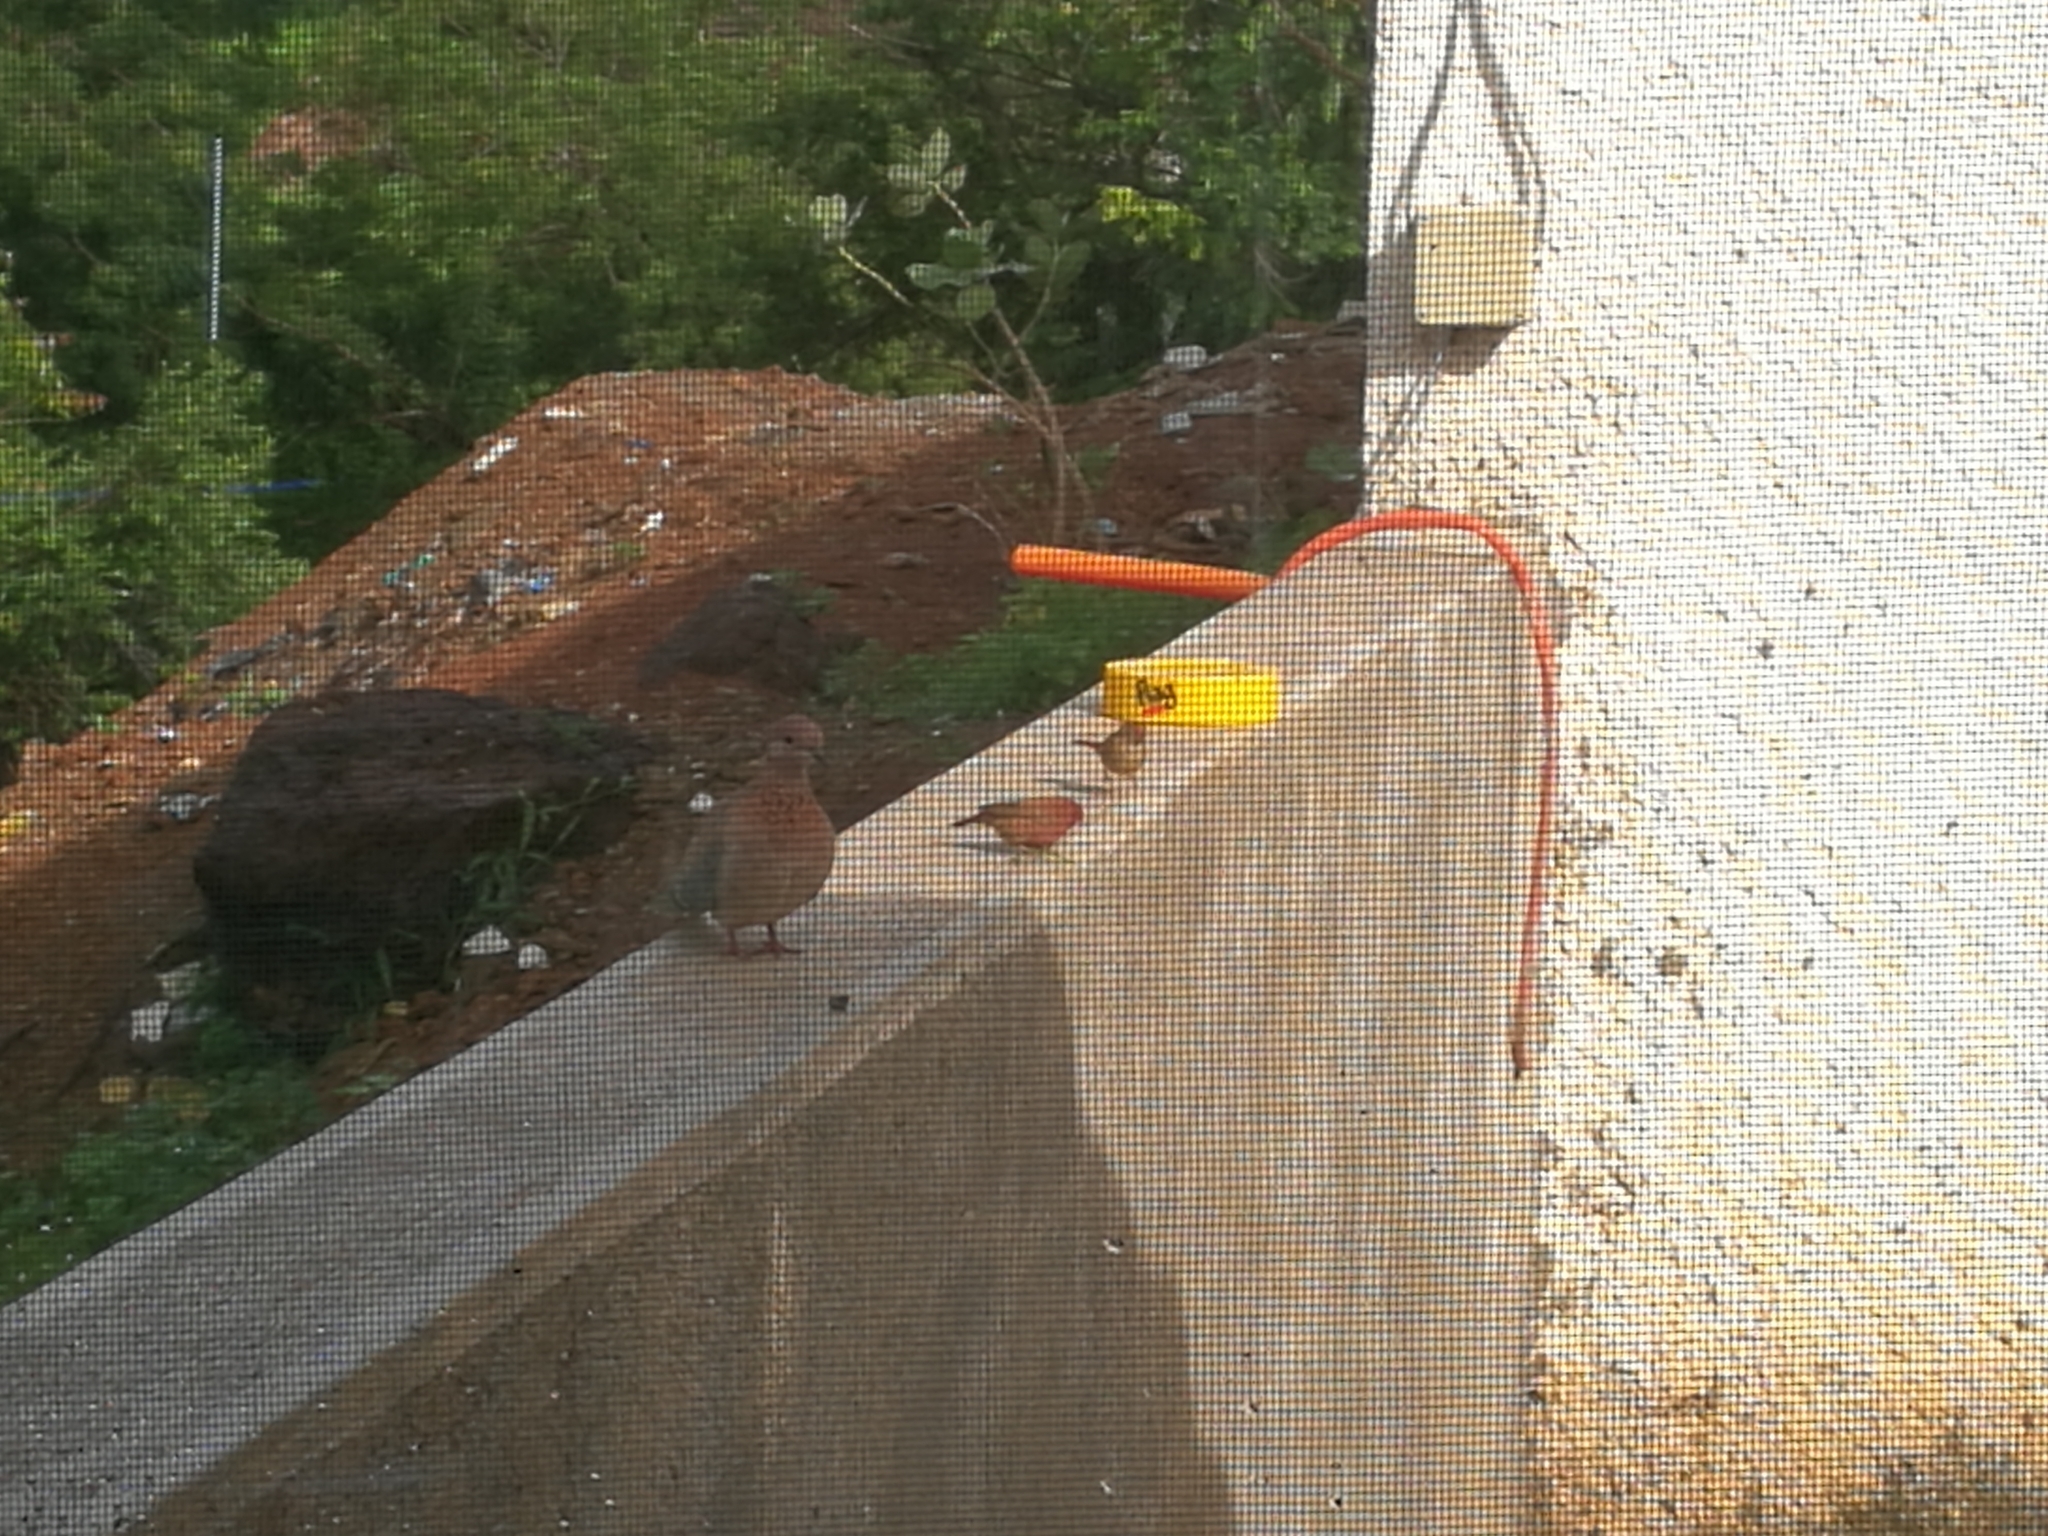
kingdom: Animalia
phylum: Chordata
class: Aves
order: Passeriformes
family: Estrildidae
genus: Lagonosticta
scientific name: Lagonosticta senegala
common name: Red-billed firefinch
